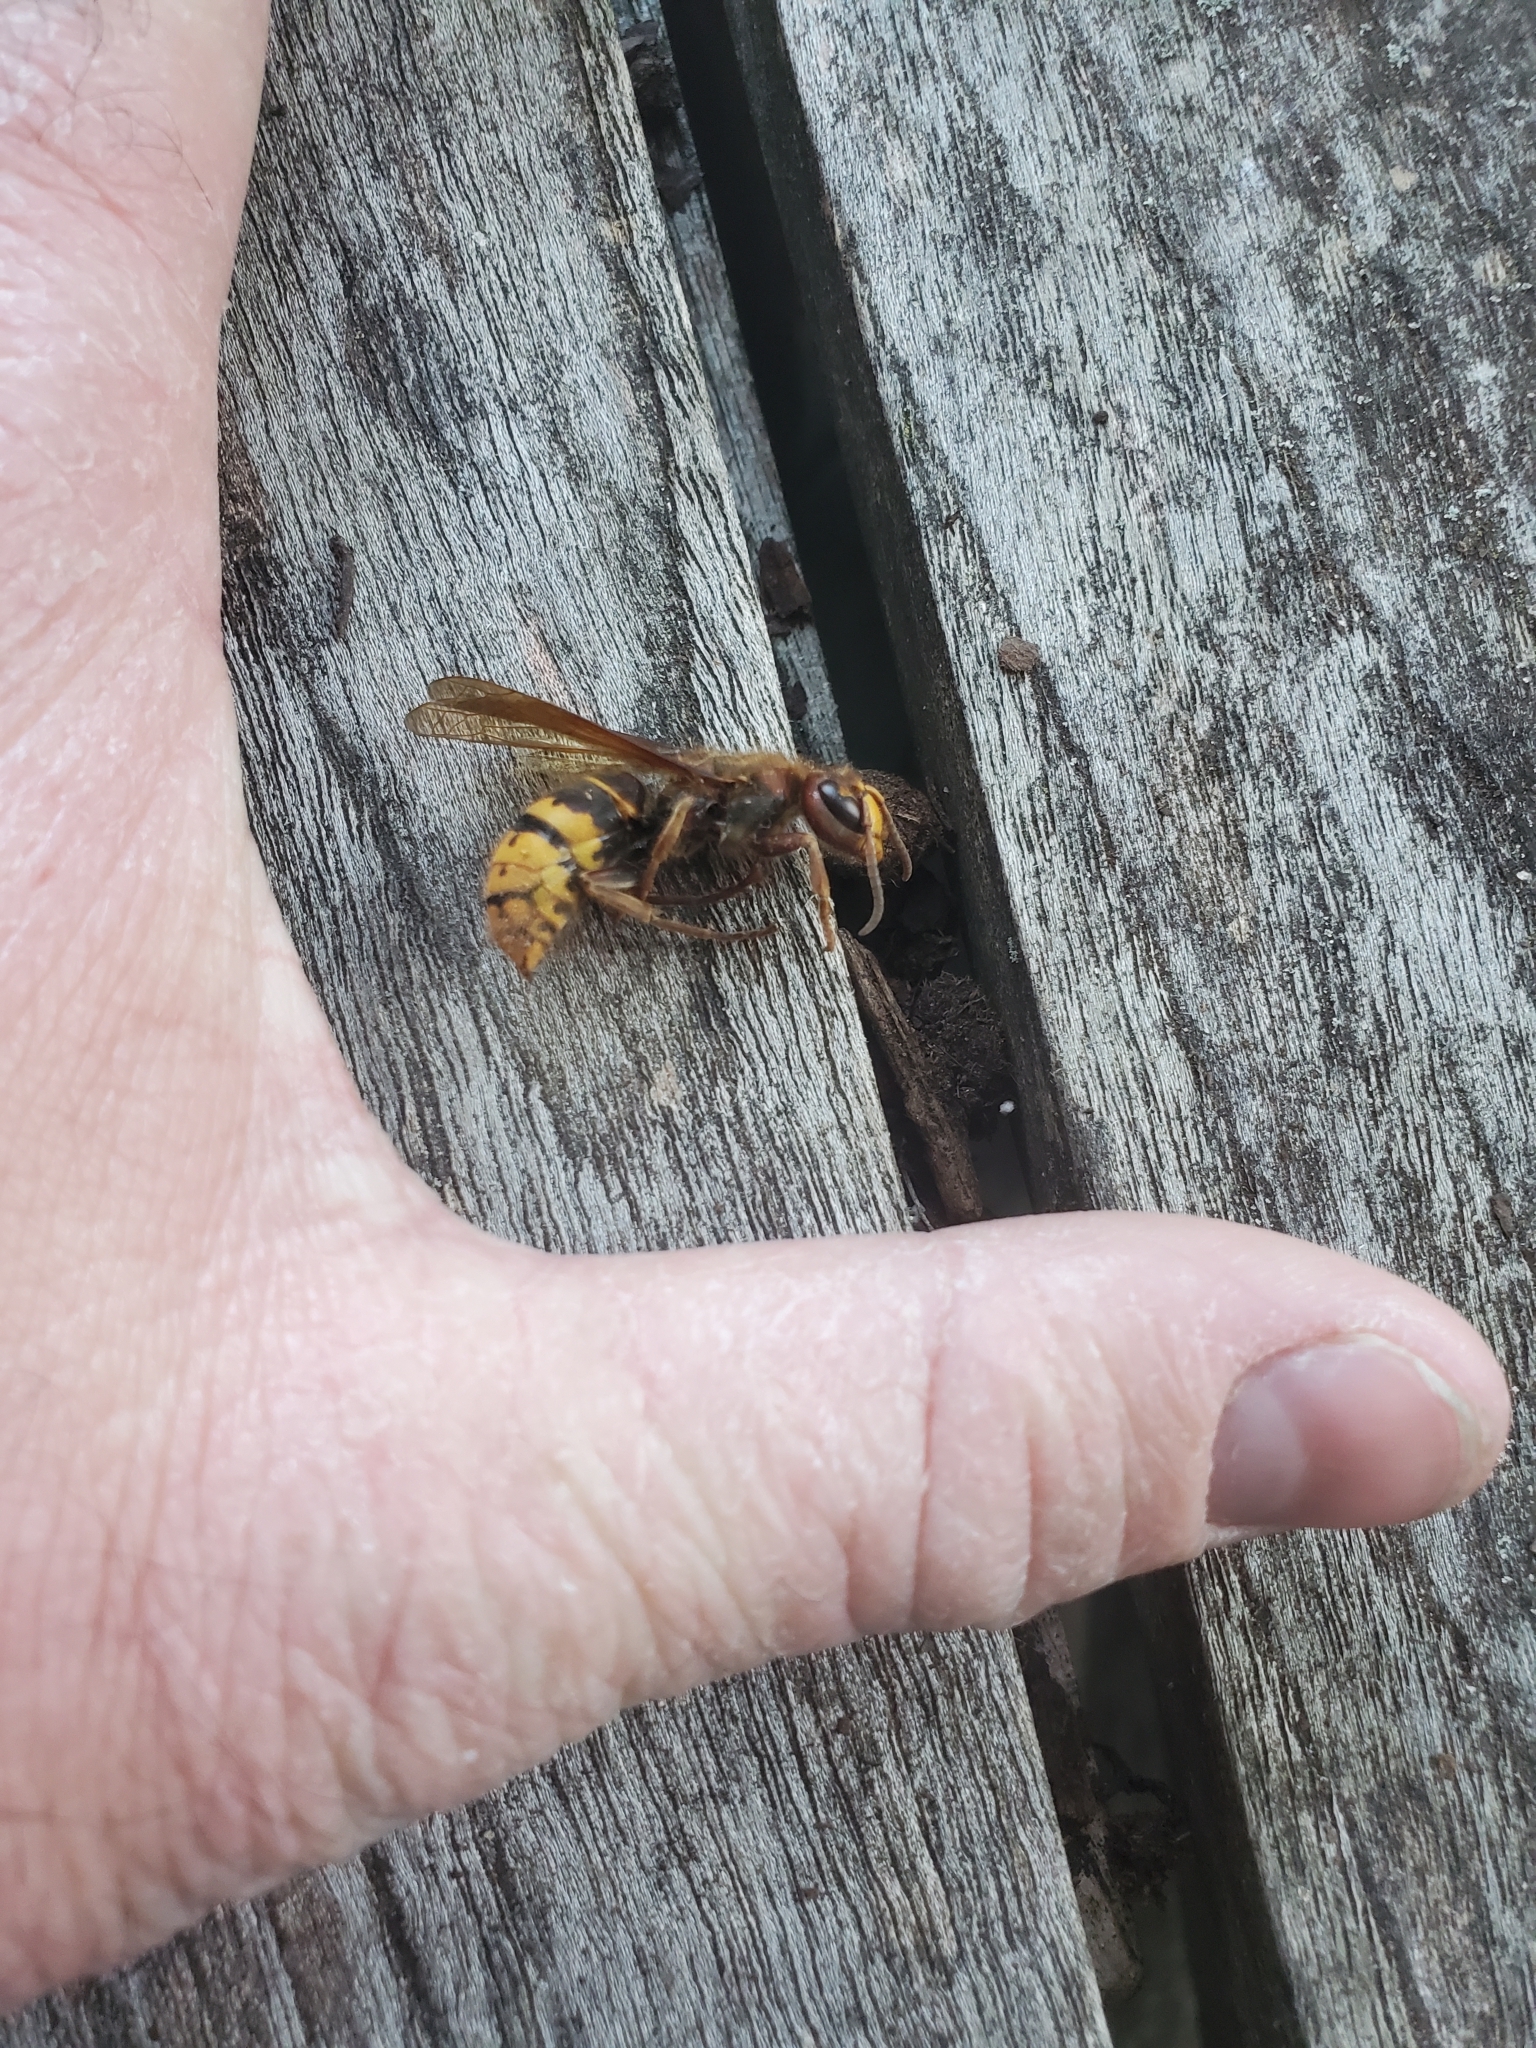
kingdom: Animalia
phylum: Arthropoda
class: Insecta
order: Hymenoptera
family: Vespidae
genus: Vespa
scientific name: Vespa crabro
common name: Hornet
